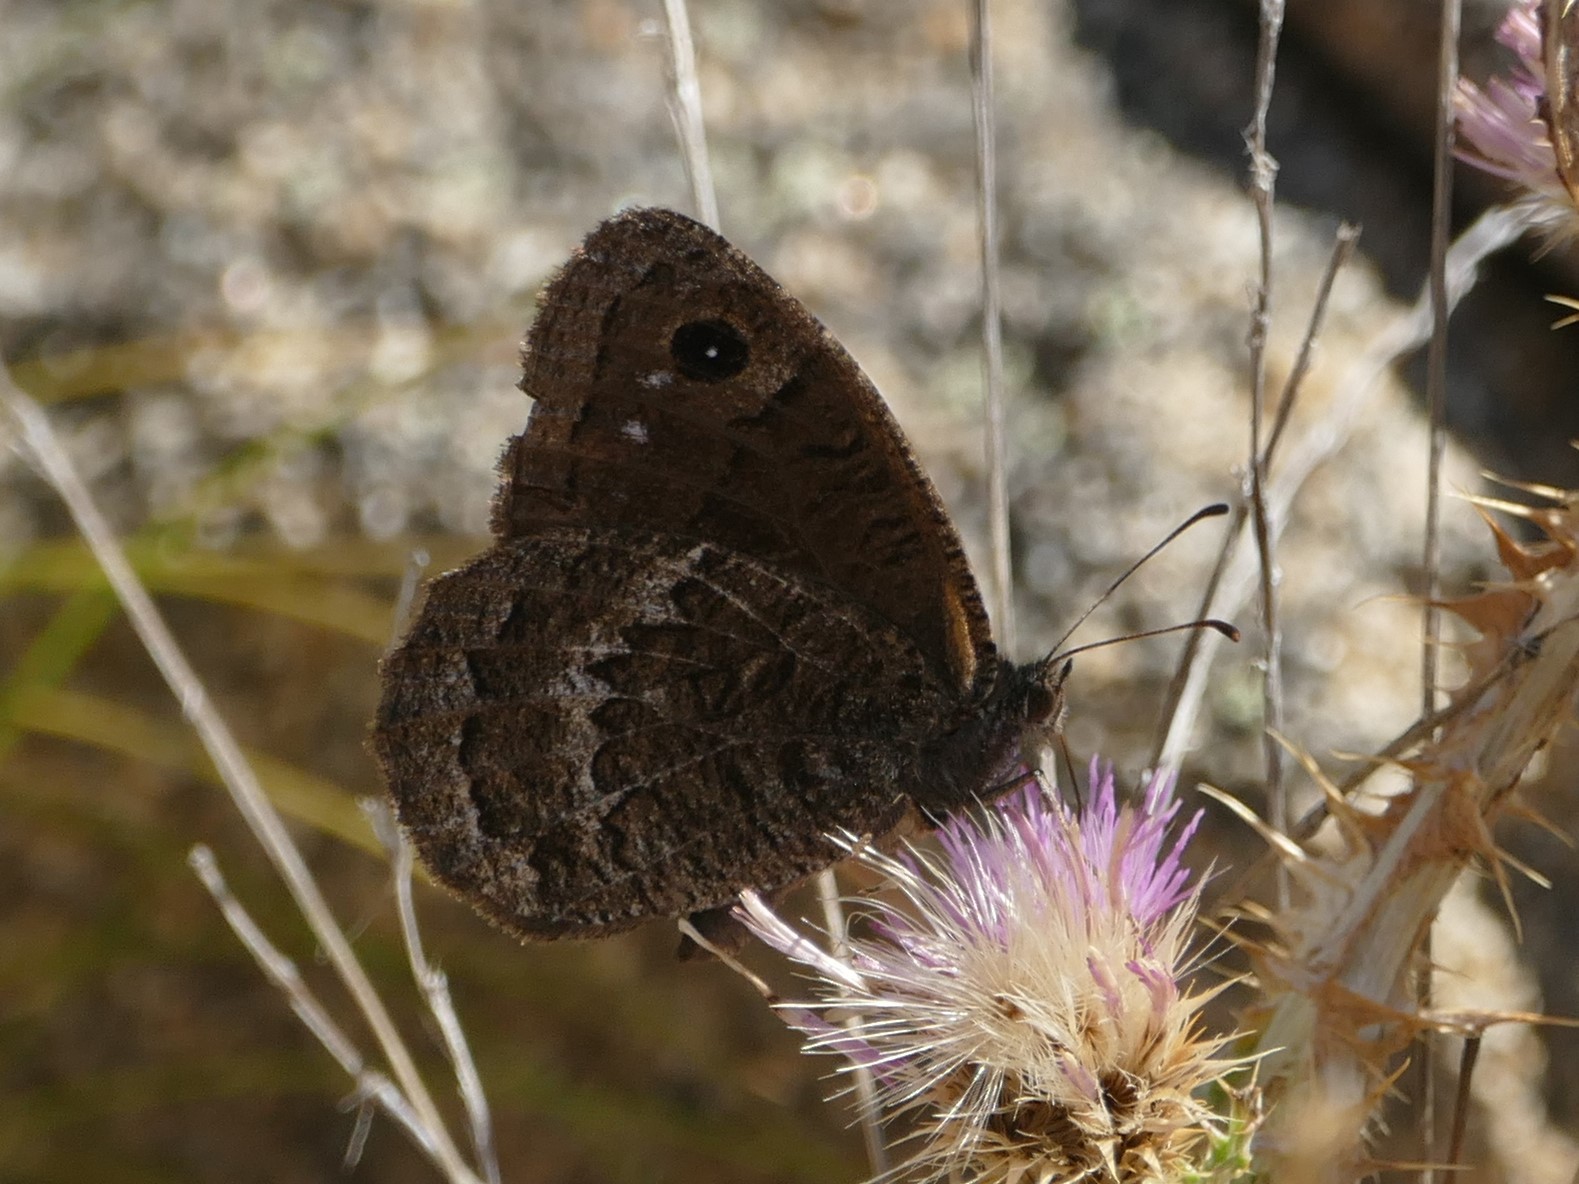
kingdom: Animalia
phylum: Arthropoda
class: Insecta
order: Lepidoptera
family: Nymphalidae
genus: Satyrus
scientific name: Satyrus actaea
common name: Black satyr
